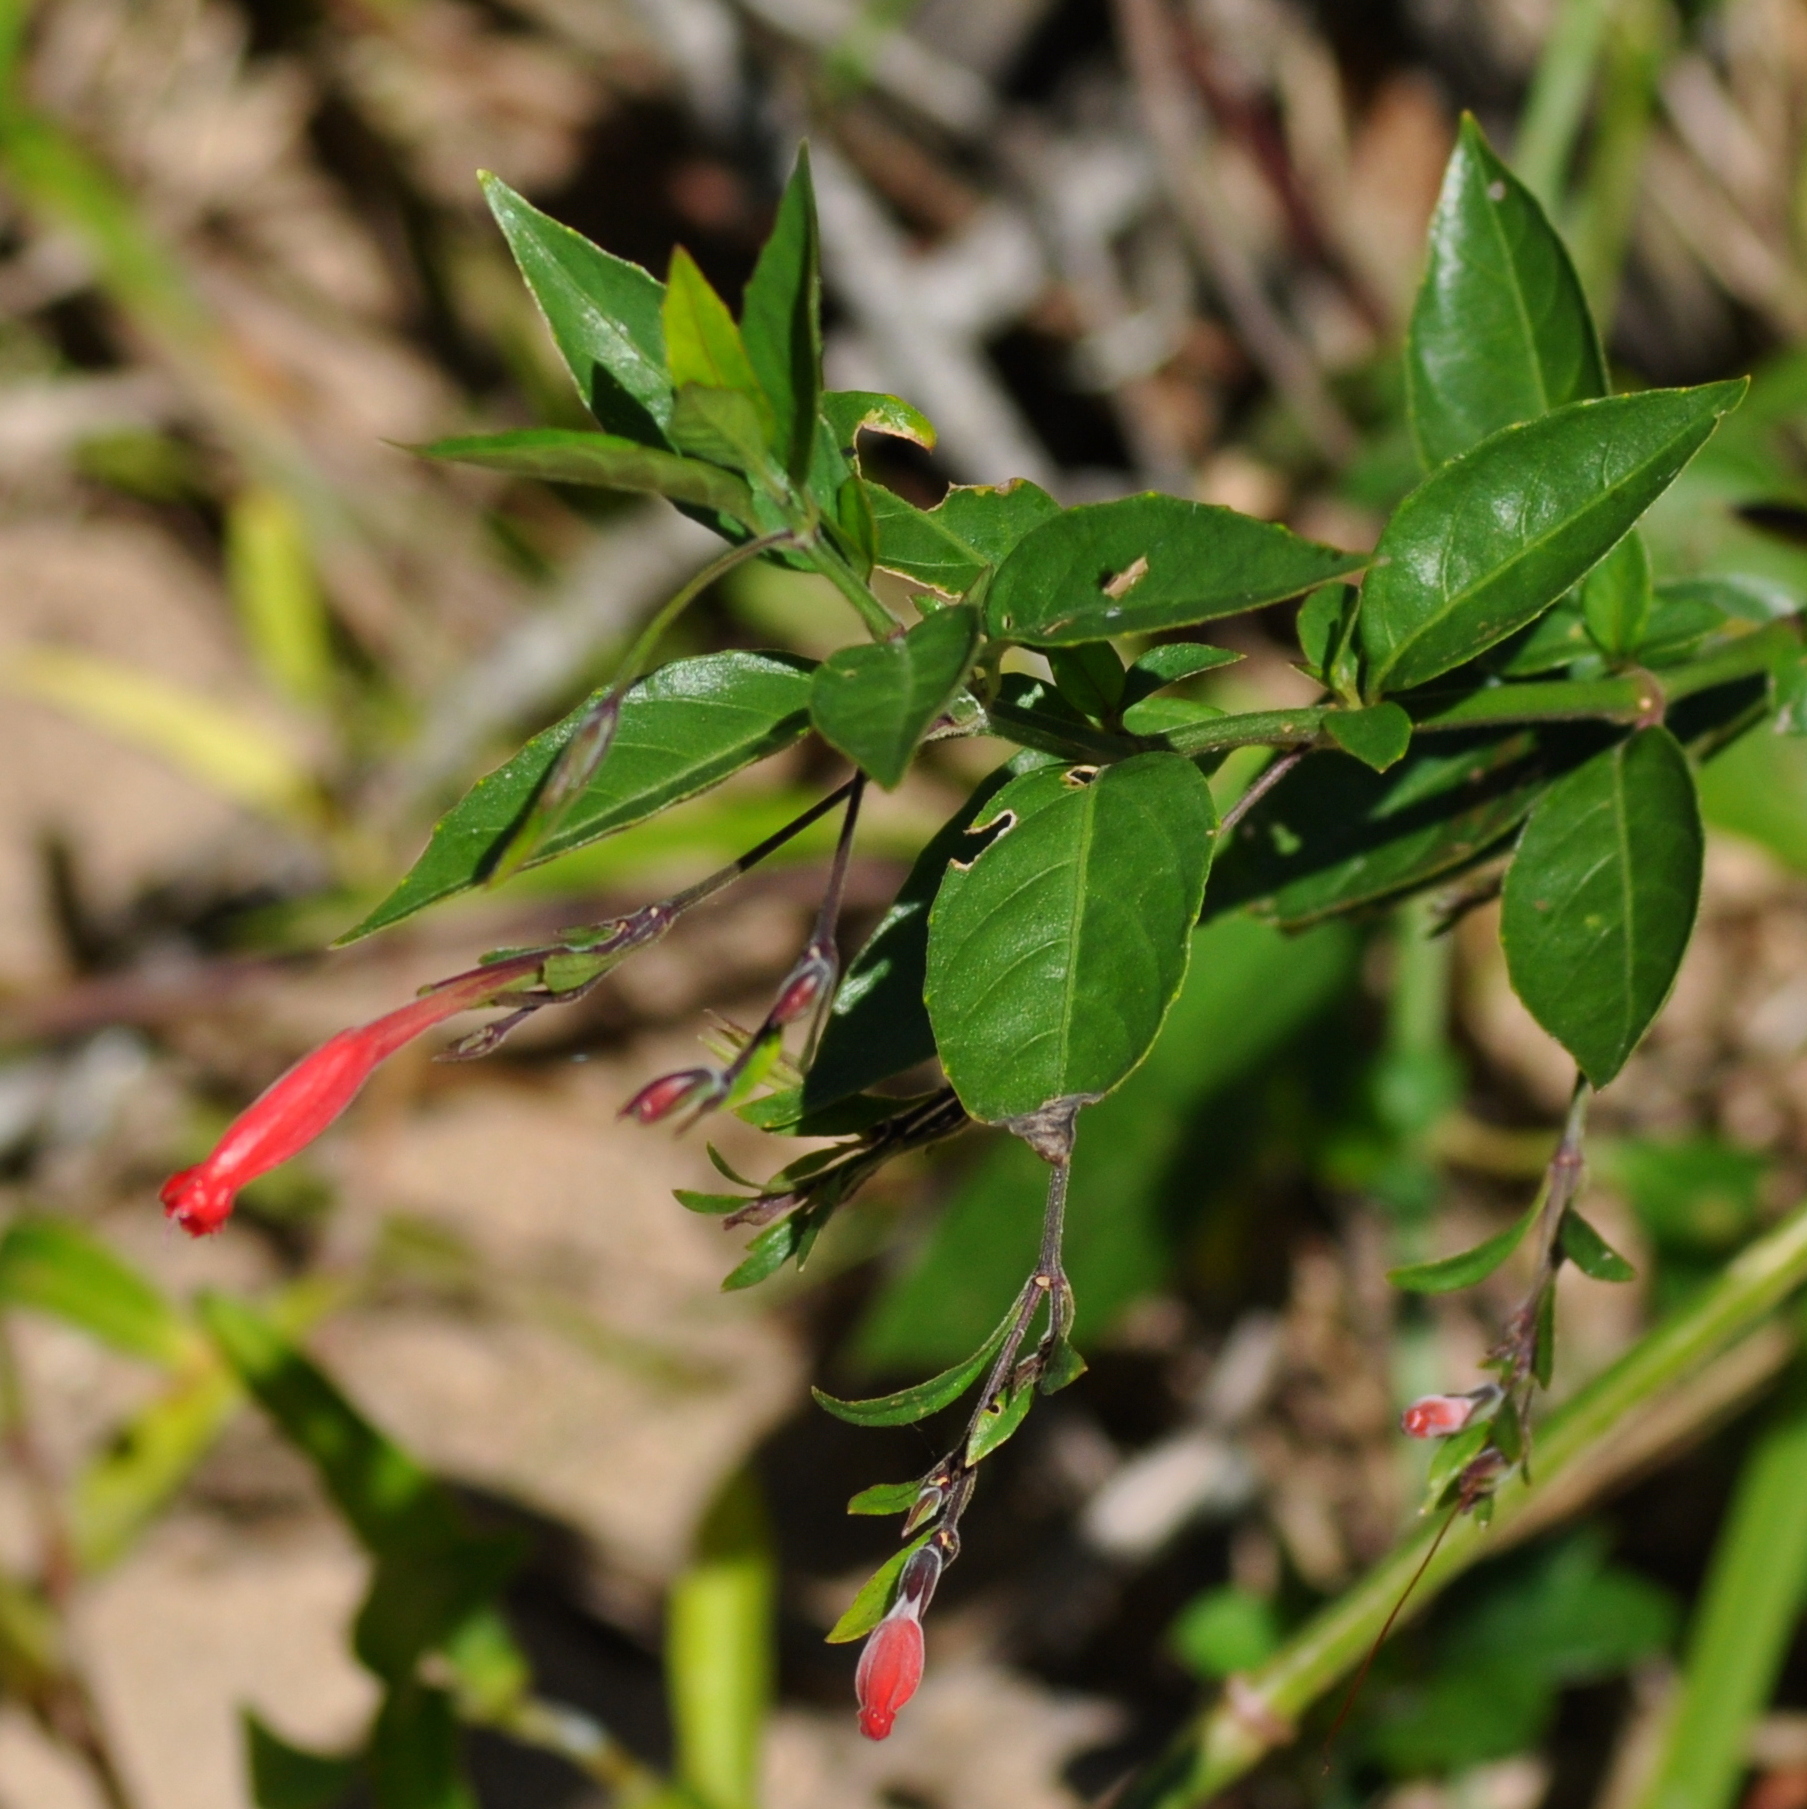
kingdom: Plantae
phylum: Tracheophyta
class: Magnoliopsida
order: Lamiales
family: Acanthaceae
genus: Ruellia
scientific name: Ruellia angustiflora
